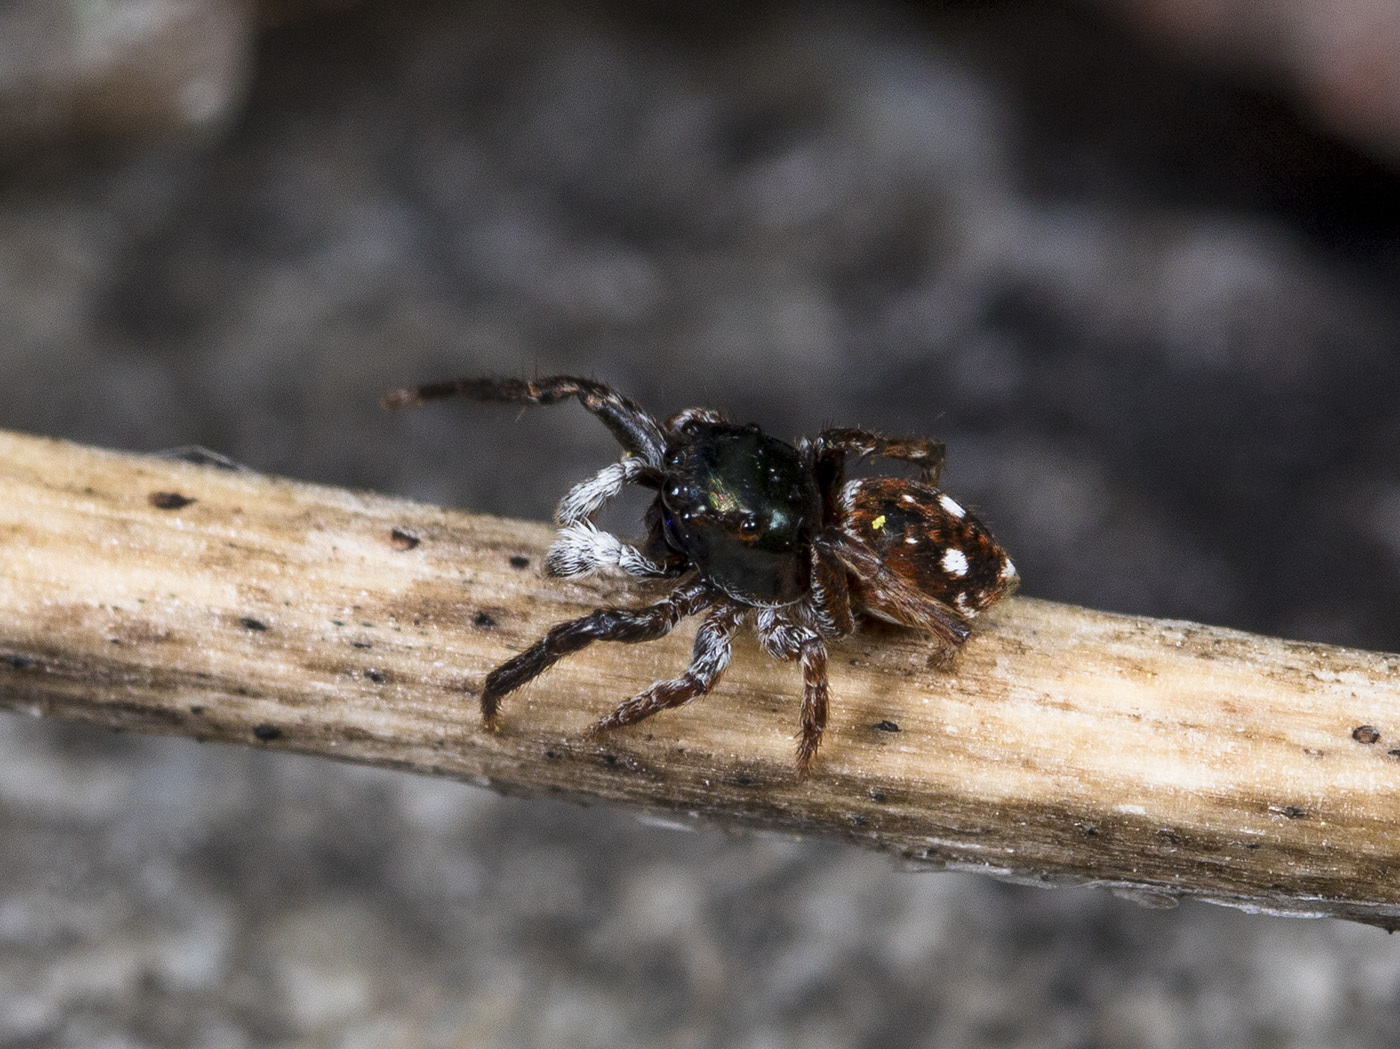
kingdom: Animalia
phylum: Arthropoda
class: Arachnida
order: Araneae
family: Salticidae
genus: Attulus
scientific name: Attulus mirandus
